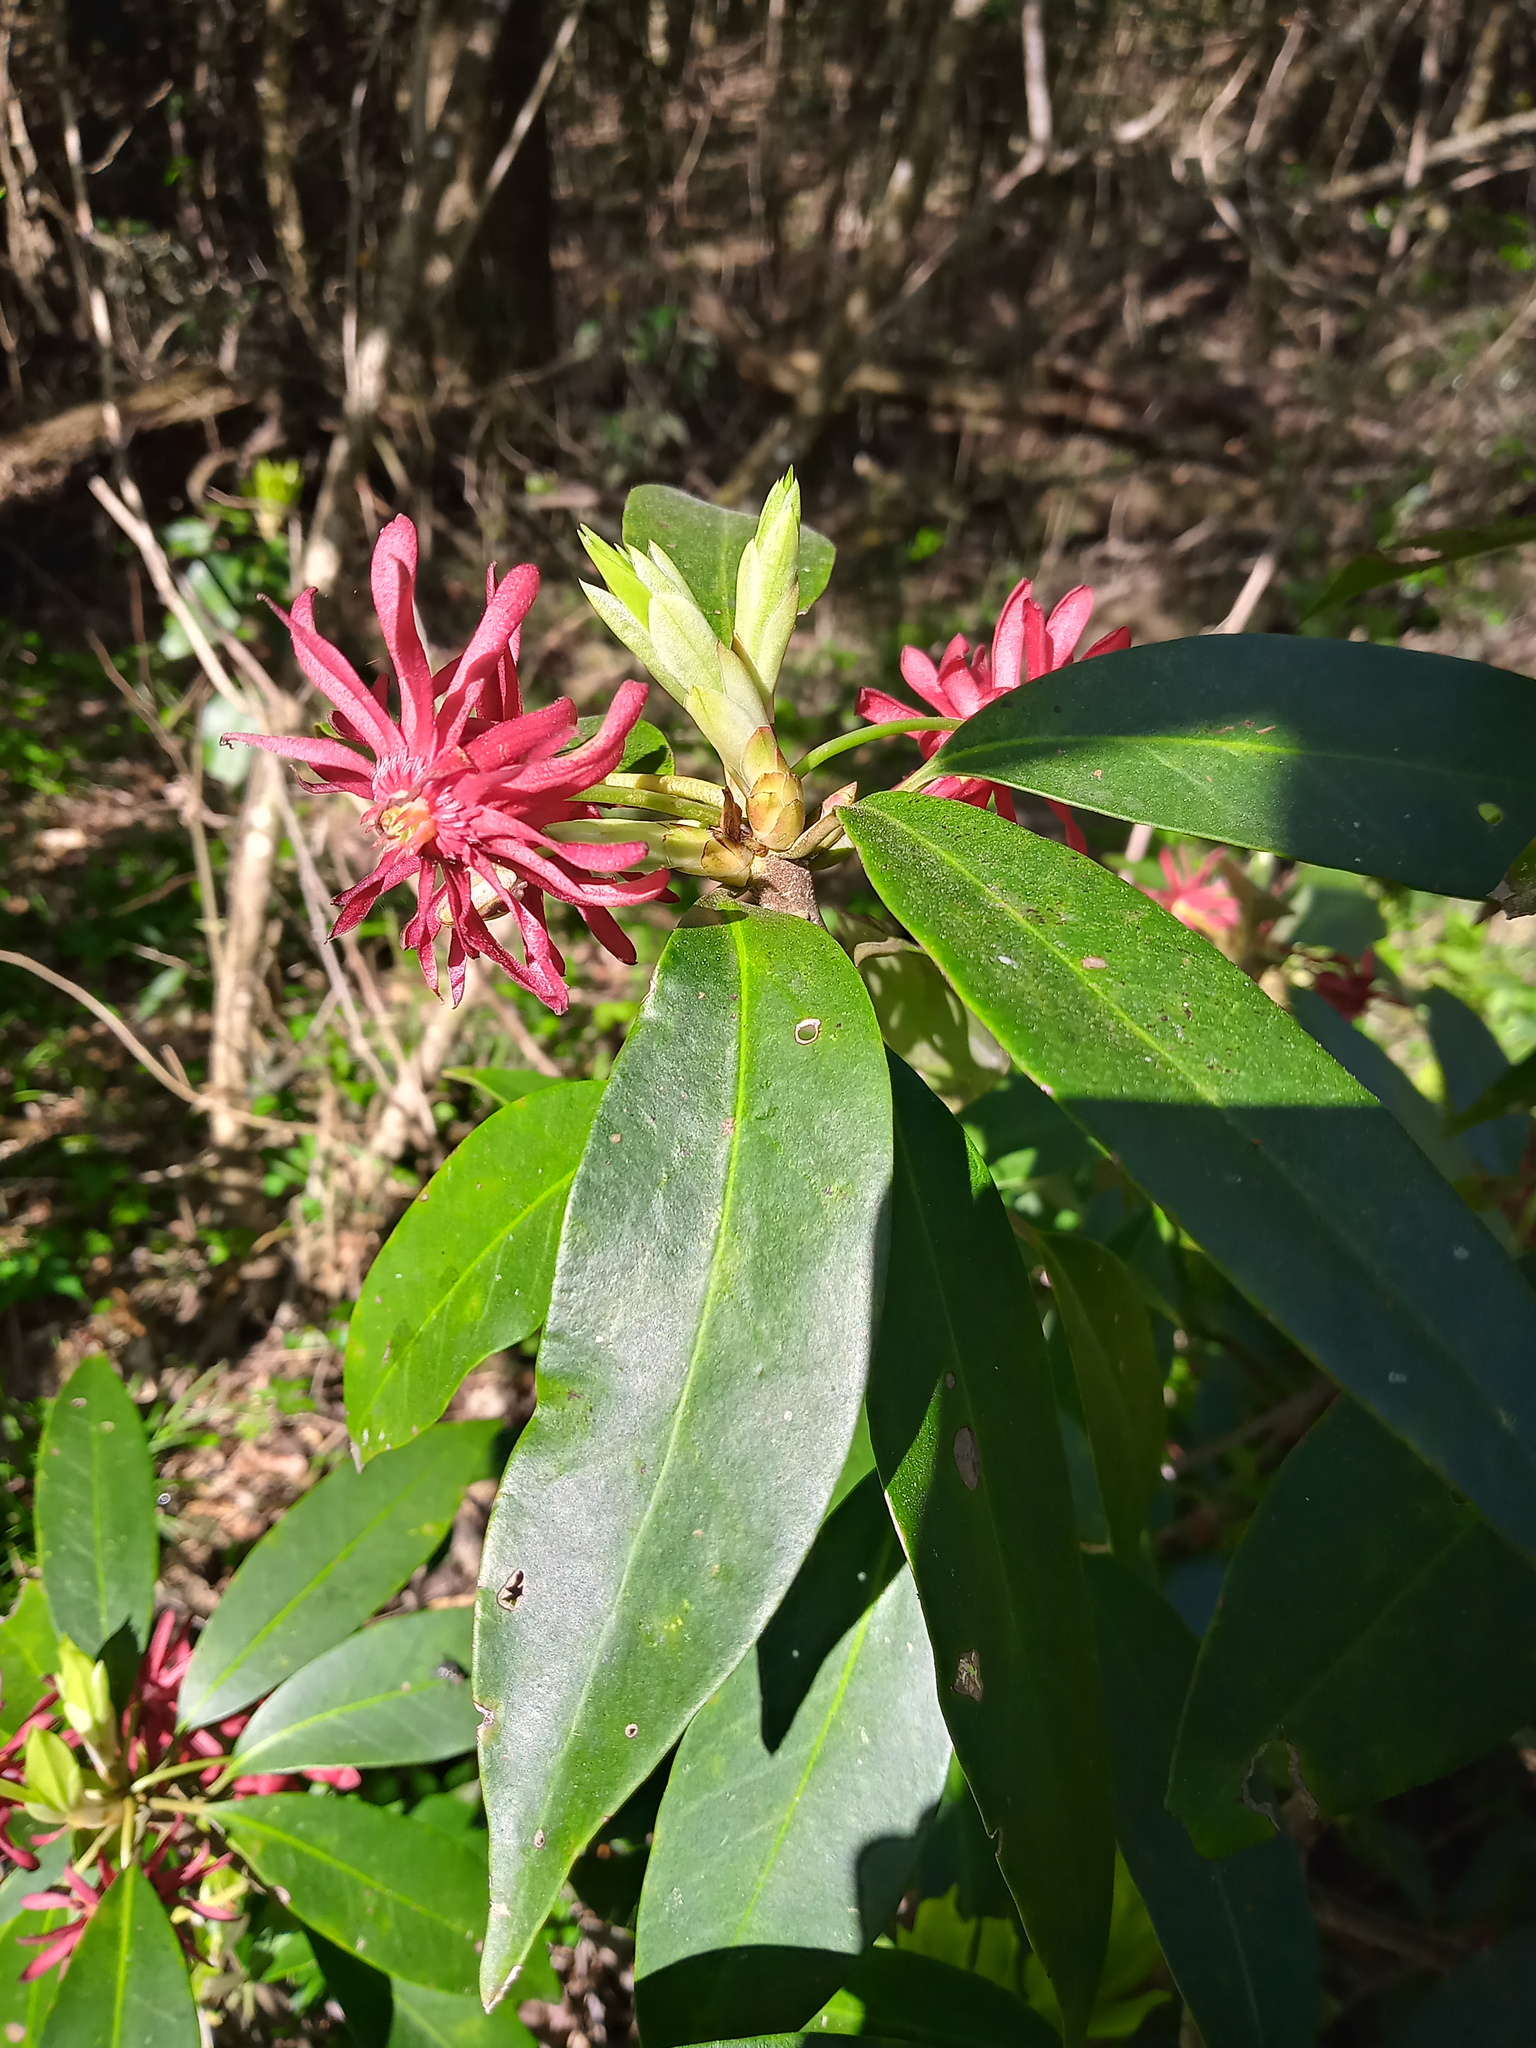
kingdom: Plantae
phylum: Tracheophyta
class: Magnoliopsida
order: Austrobaileyales
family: Schisandraceae
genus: Illicium
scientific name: Illicium floridanum
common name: Florida anisetree
